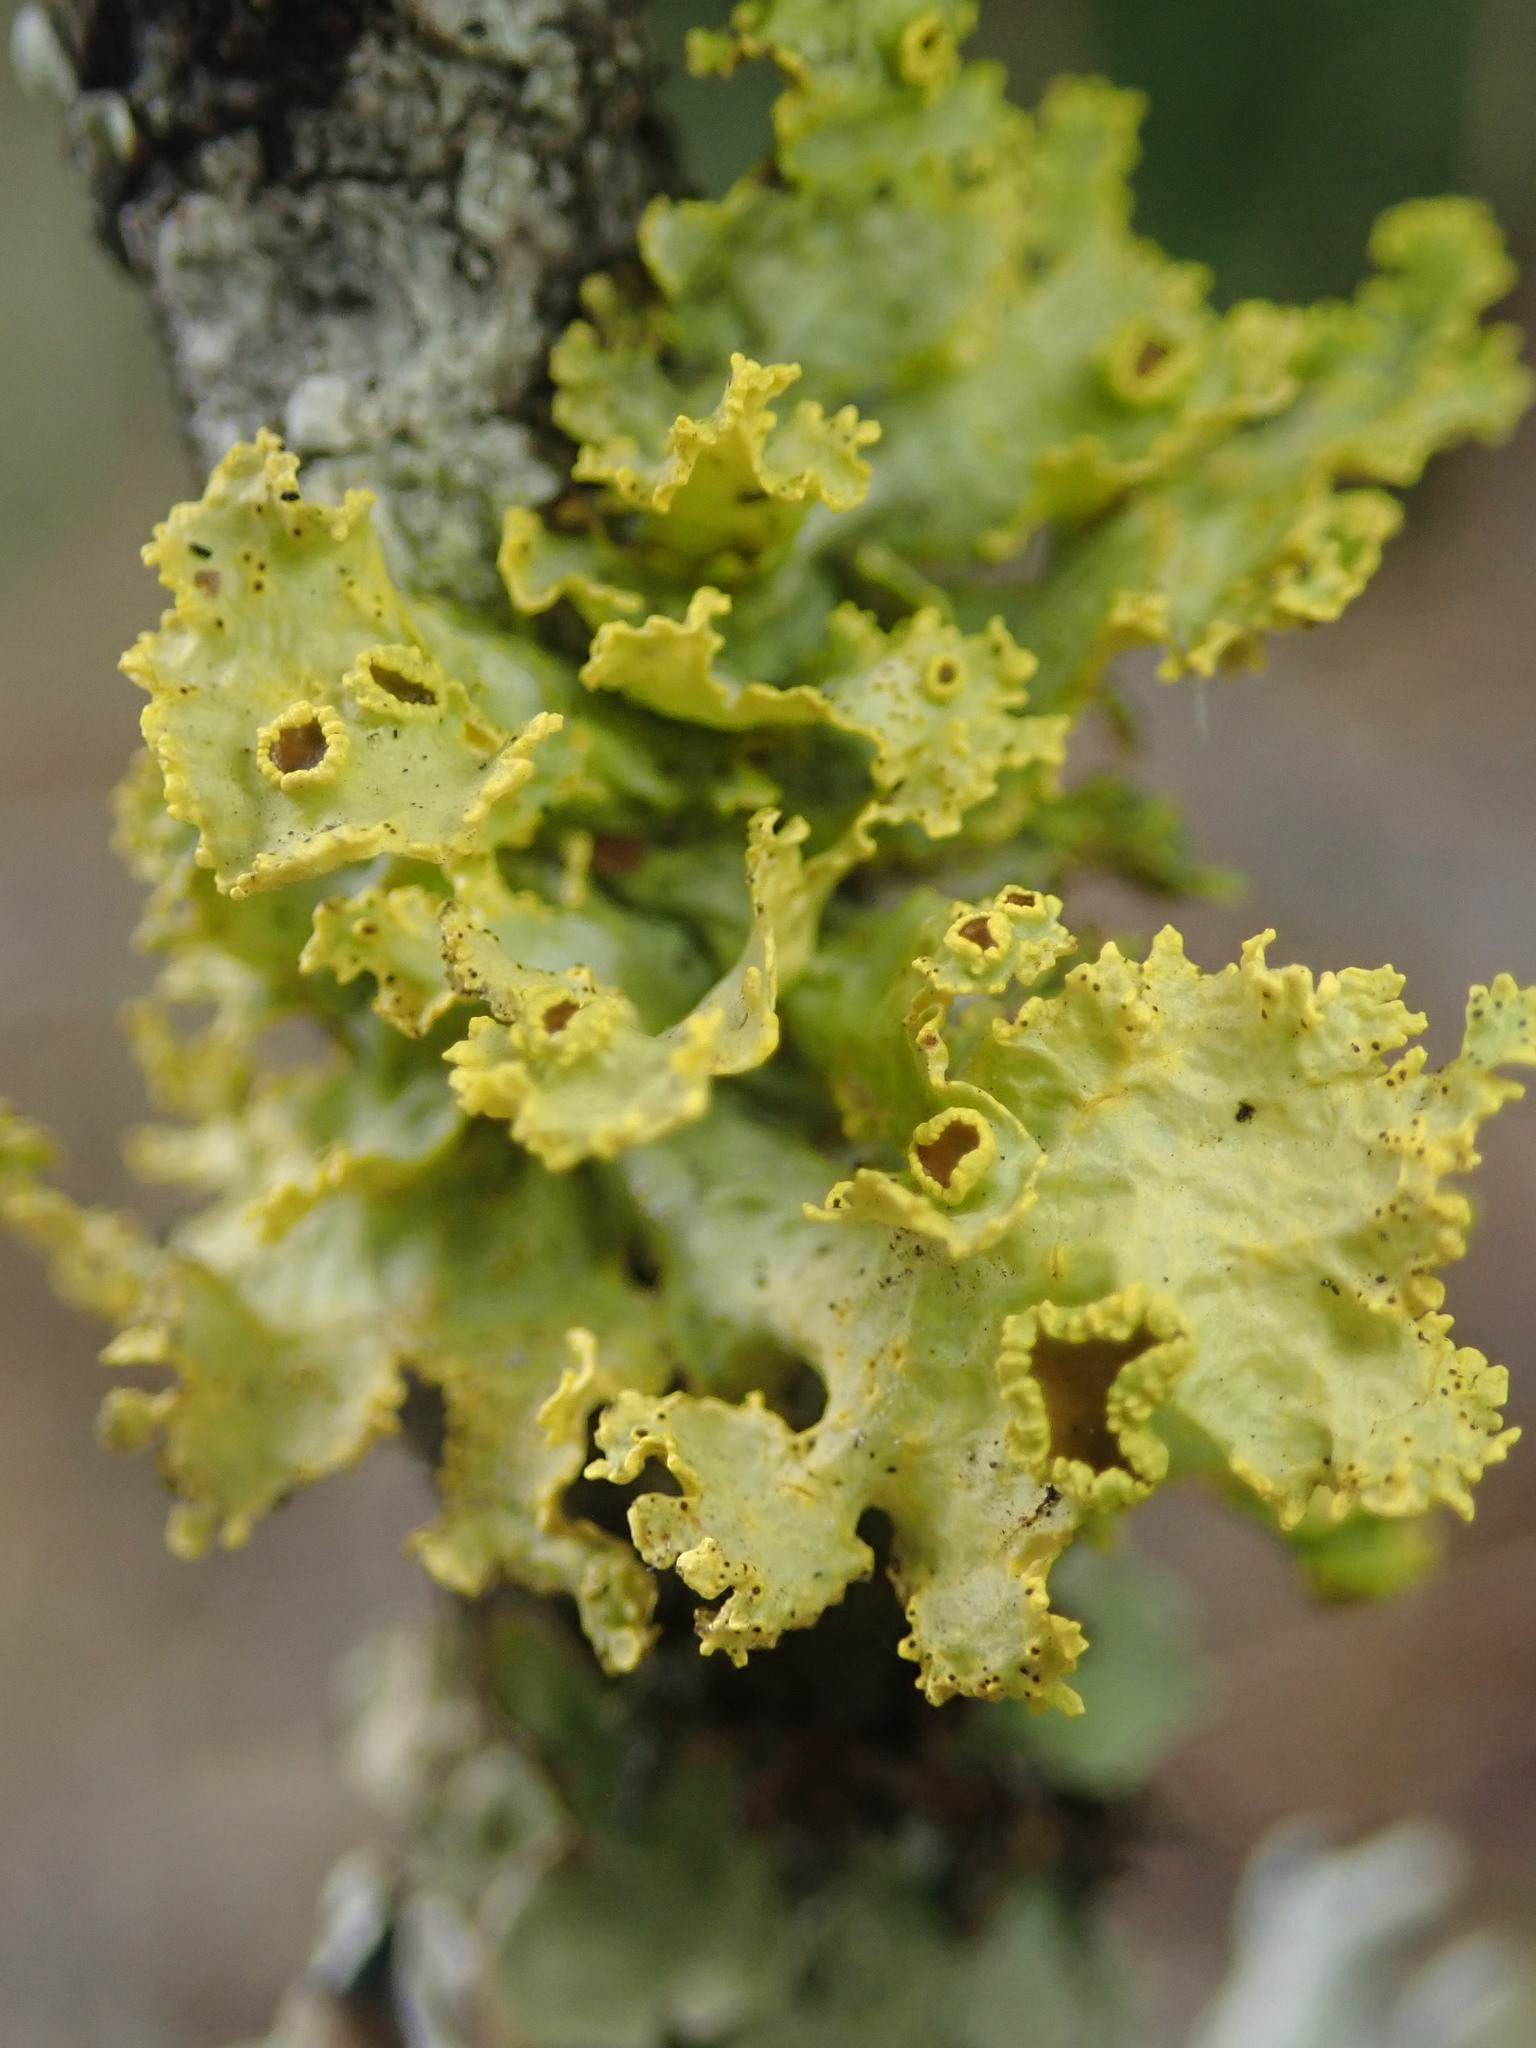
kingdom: Fungi
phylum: Ascomycota
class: Lecanoromycetes
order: Lecanorales
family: Parmeliaceae
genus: Vulpicida
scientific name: Vulpicida canadensis
